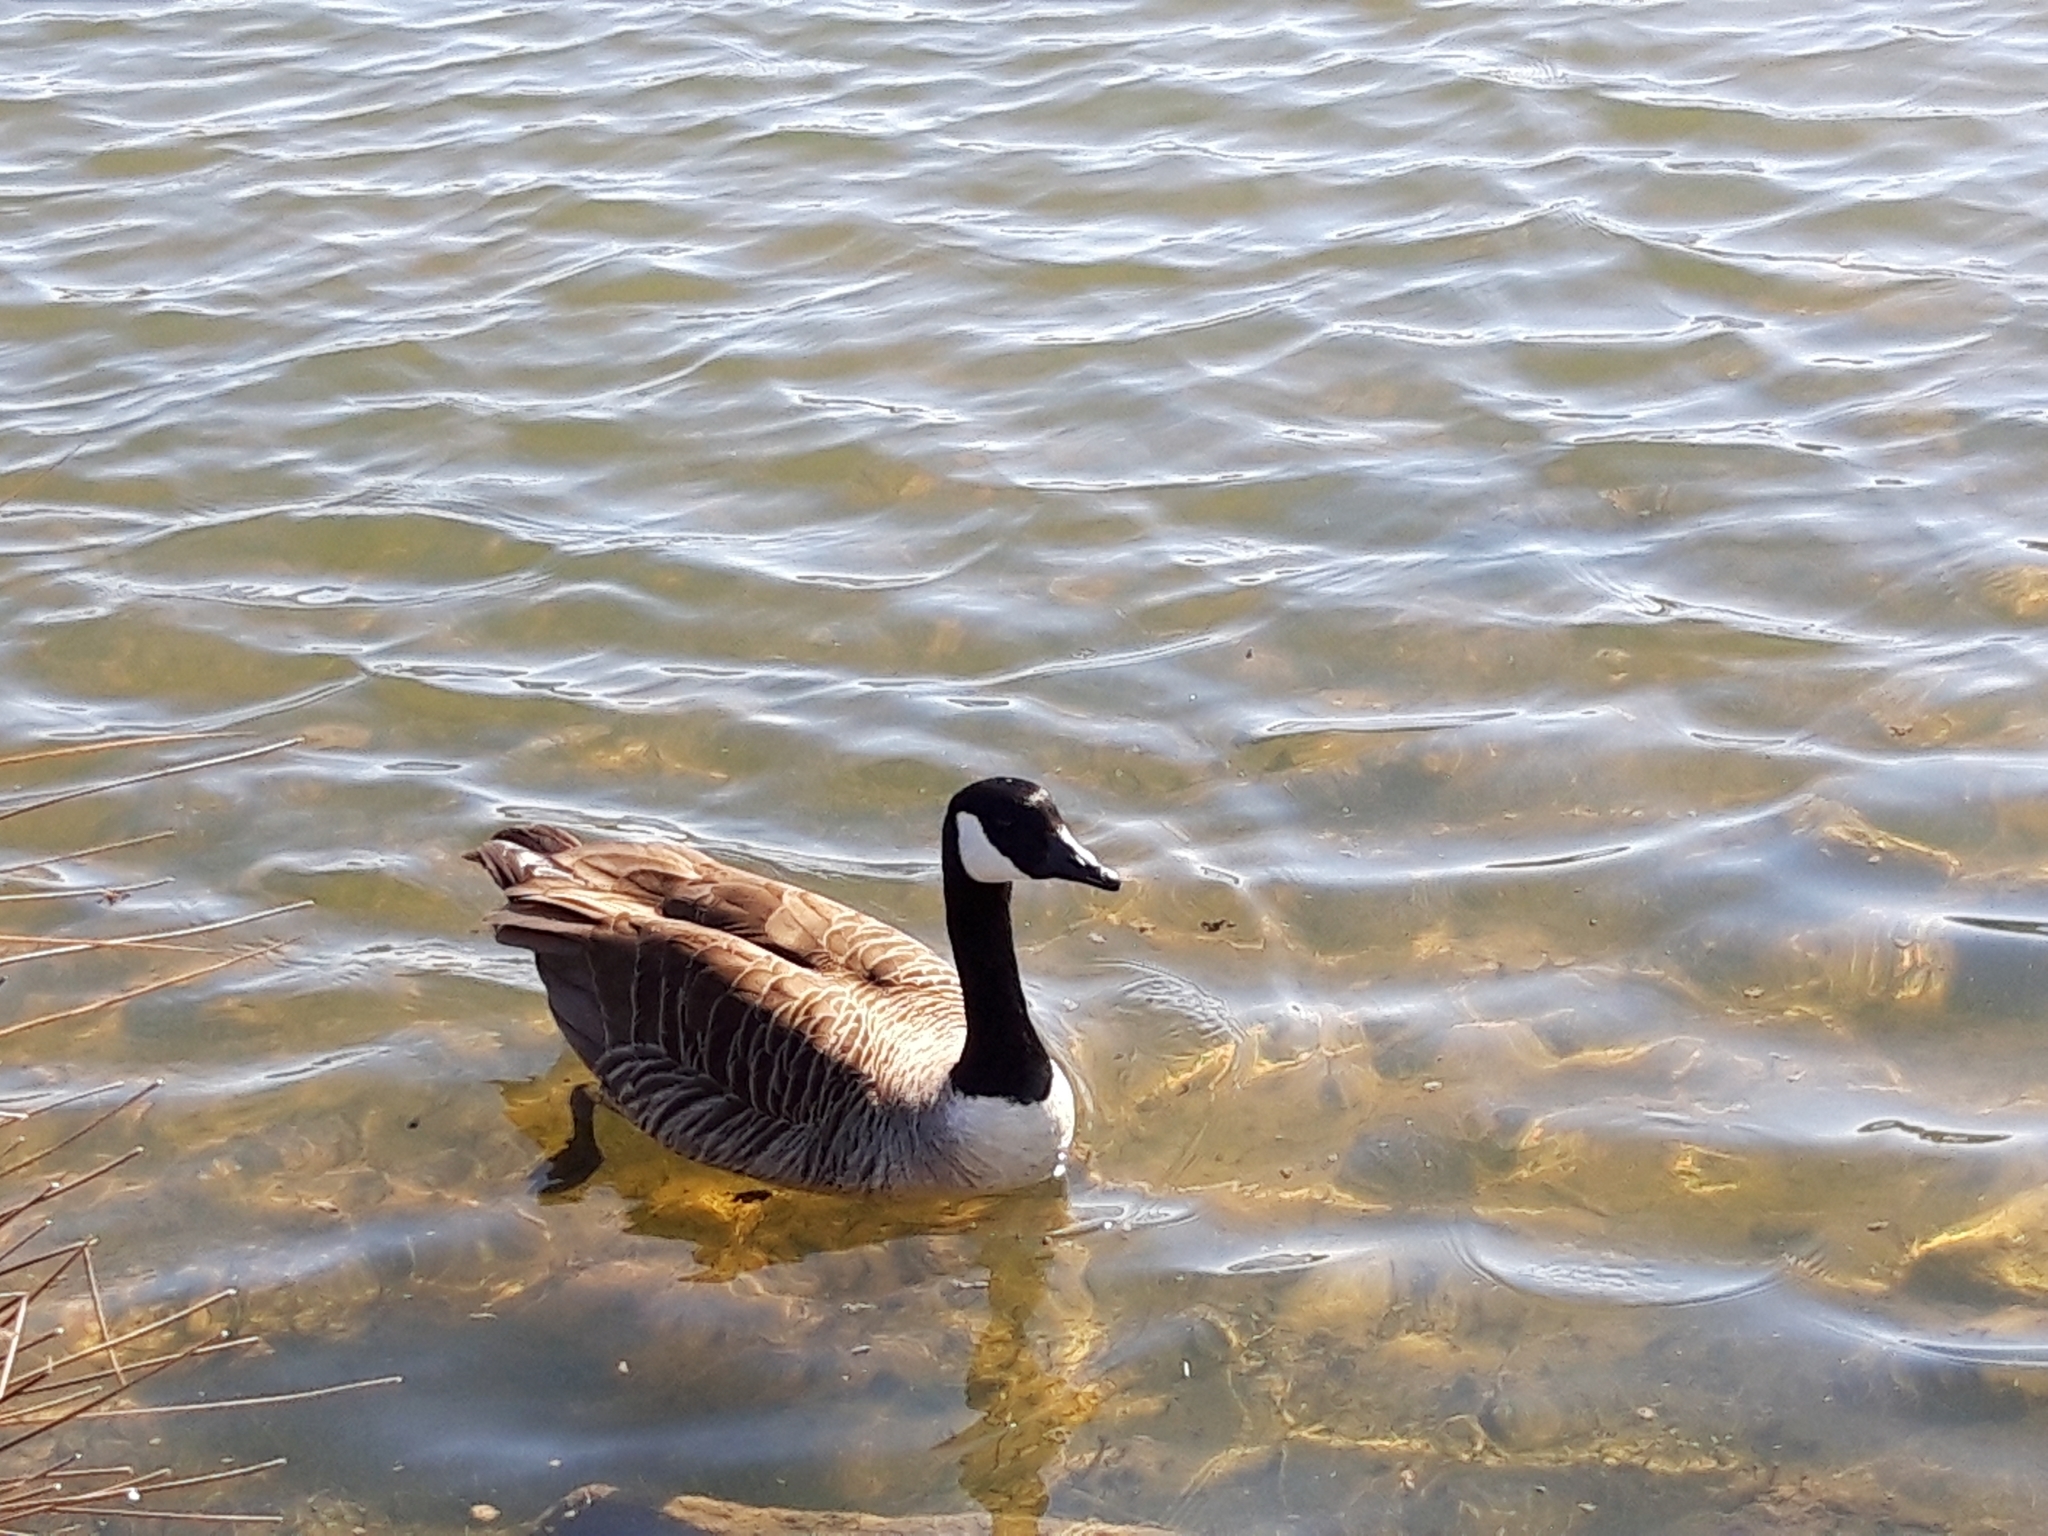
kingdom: Animalia
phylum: Chordata
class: Aves
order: Anseriformes
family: Anatidae
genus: Branta
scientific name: Branta canadensis
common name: Canada goose
